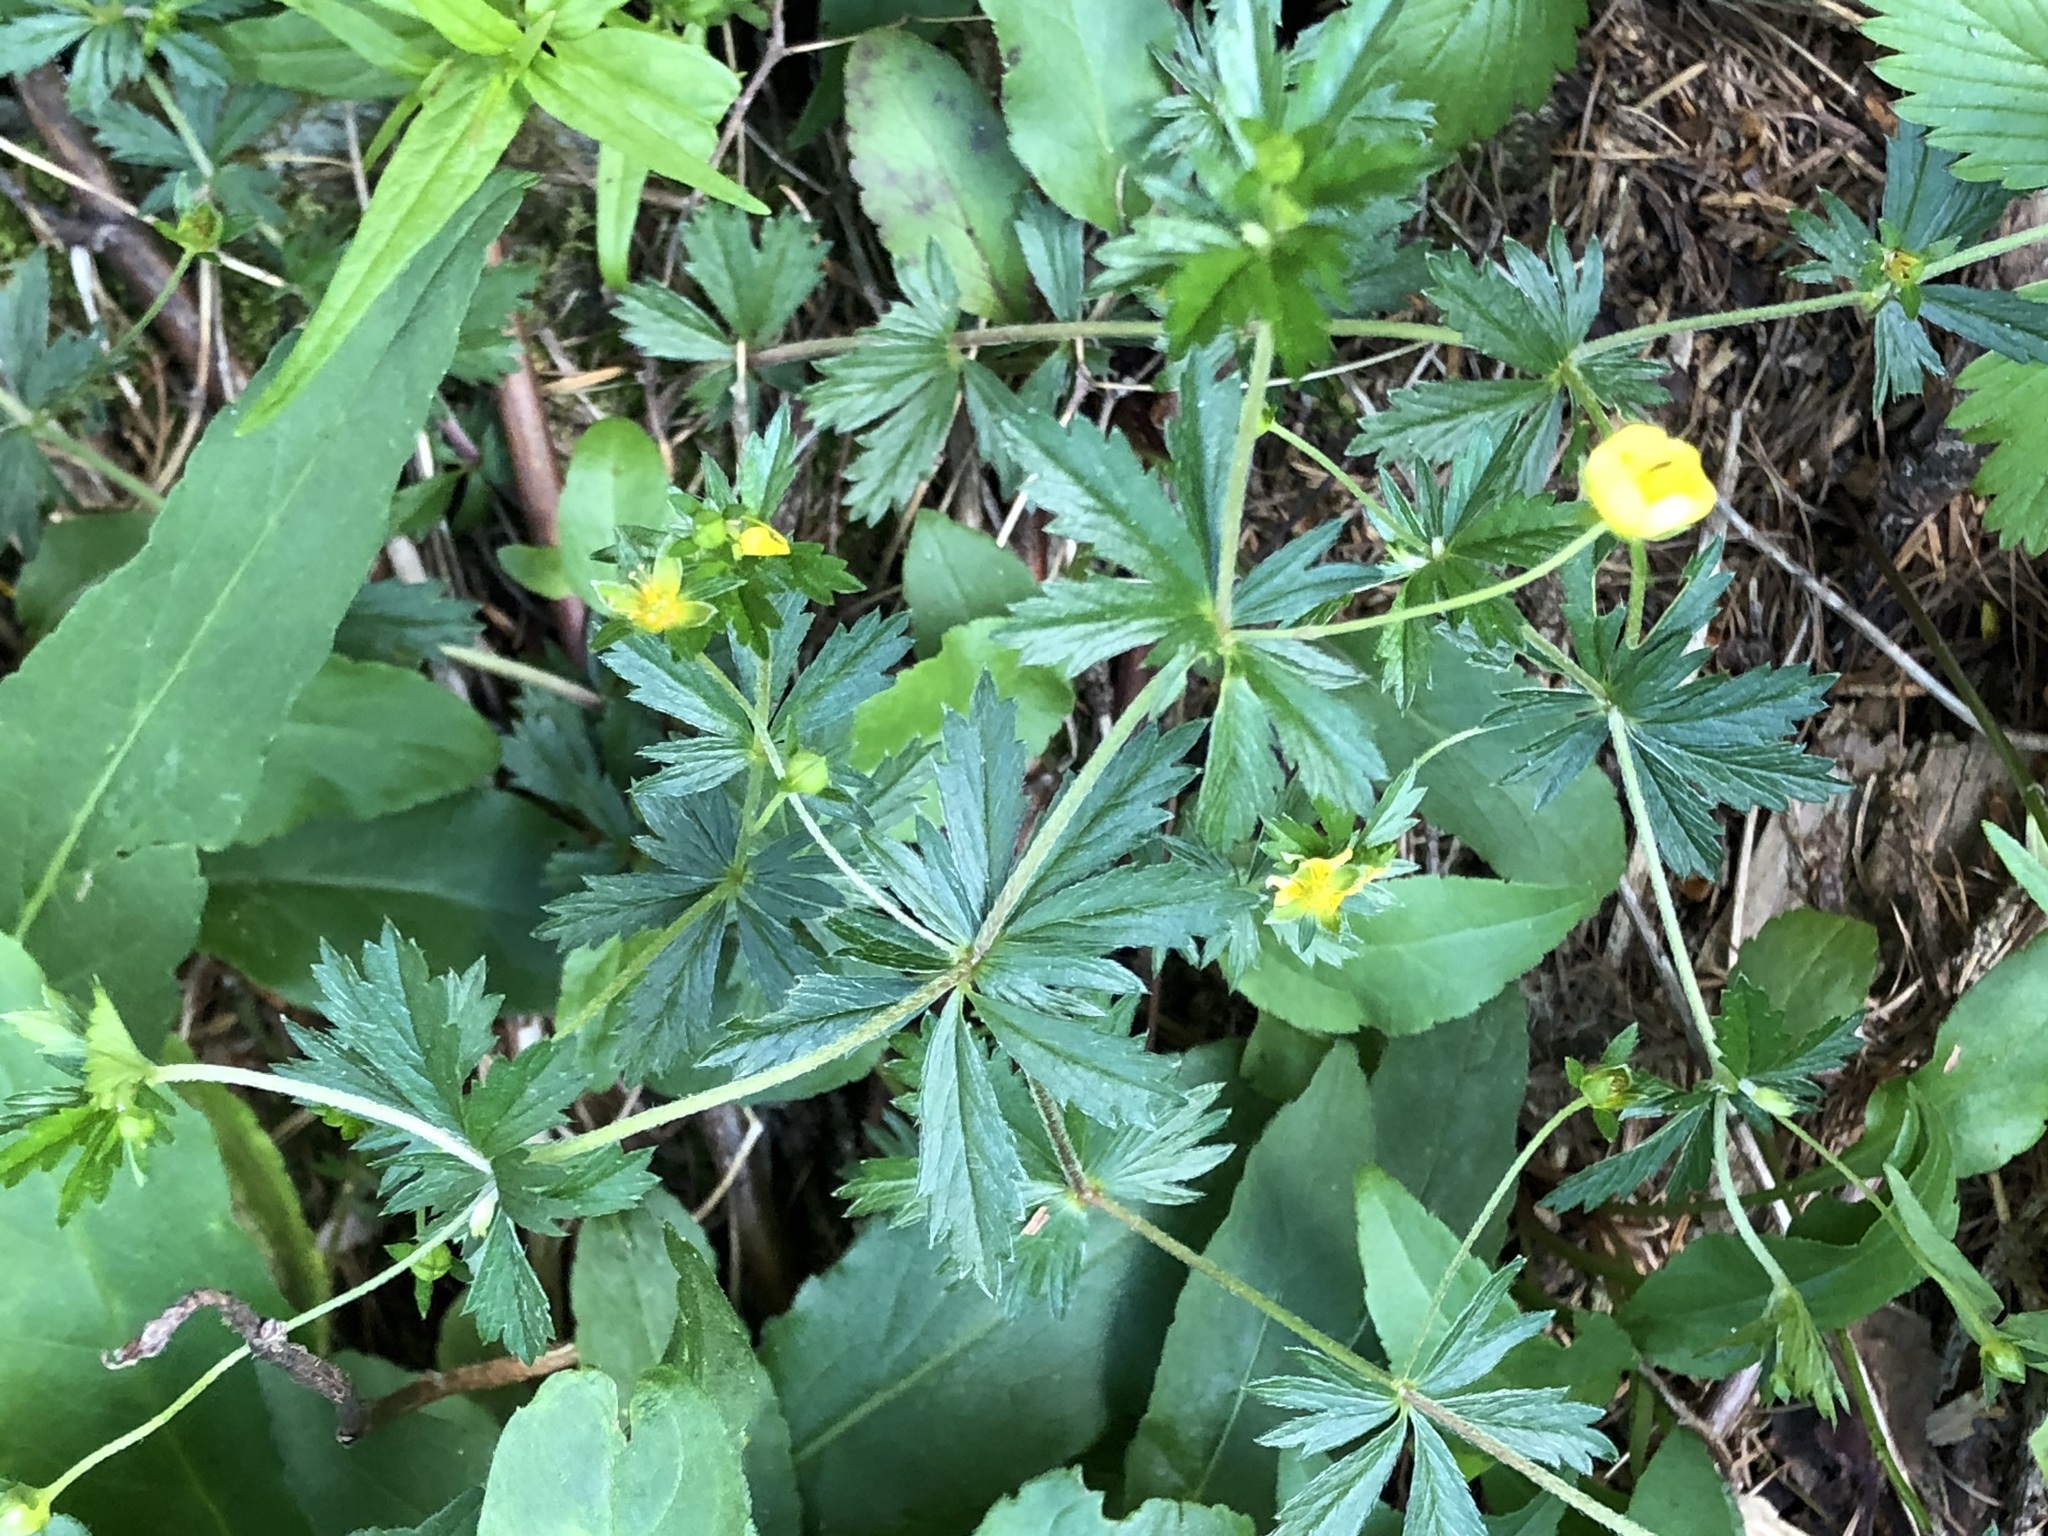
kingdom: Plantae
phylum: Tracheophyta
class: Magnoliopsida
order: Rosales
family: Rosaceae
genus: Potentilla
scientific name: Potentilla erecta
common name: Tormentil
